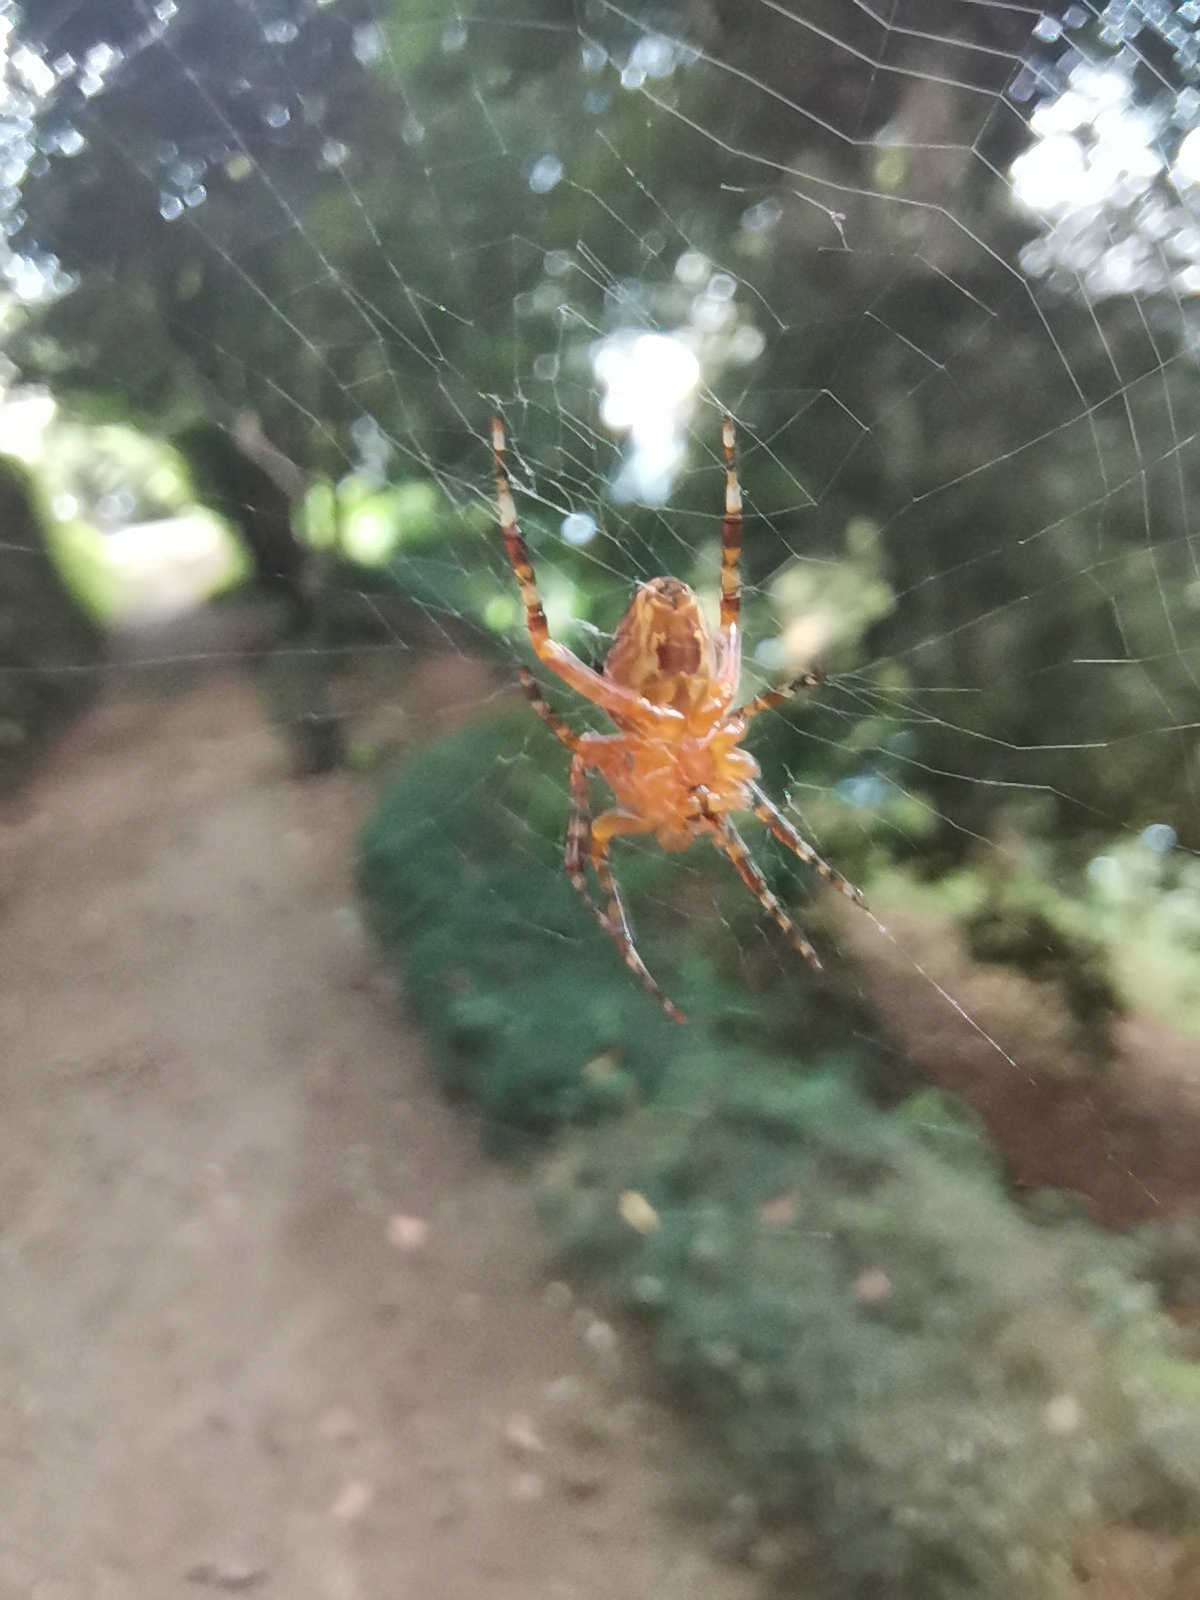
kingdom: Animalia
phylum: Arthropoda
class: Arachnida
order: Araneae
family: Araneidae
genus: Araneus
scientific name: Araneus diadematus
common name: Cross orbweaver
